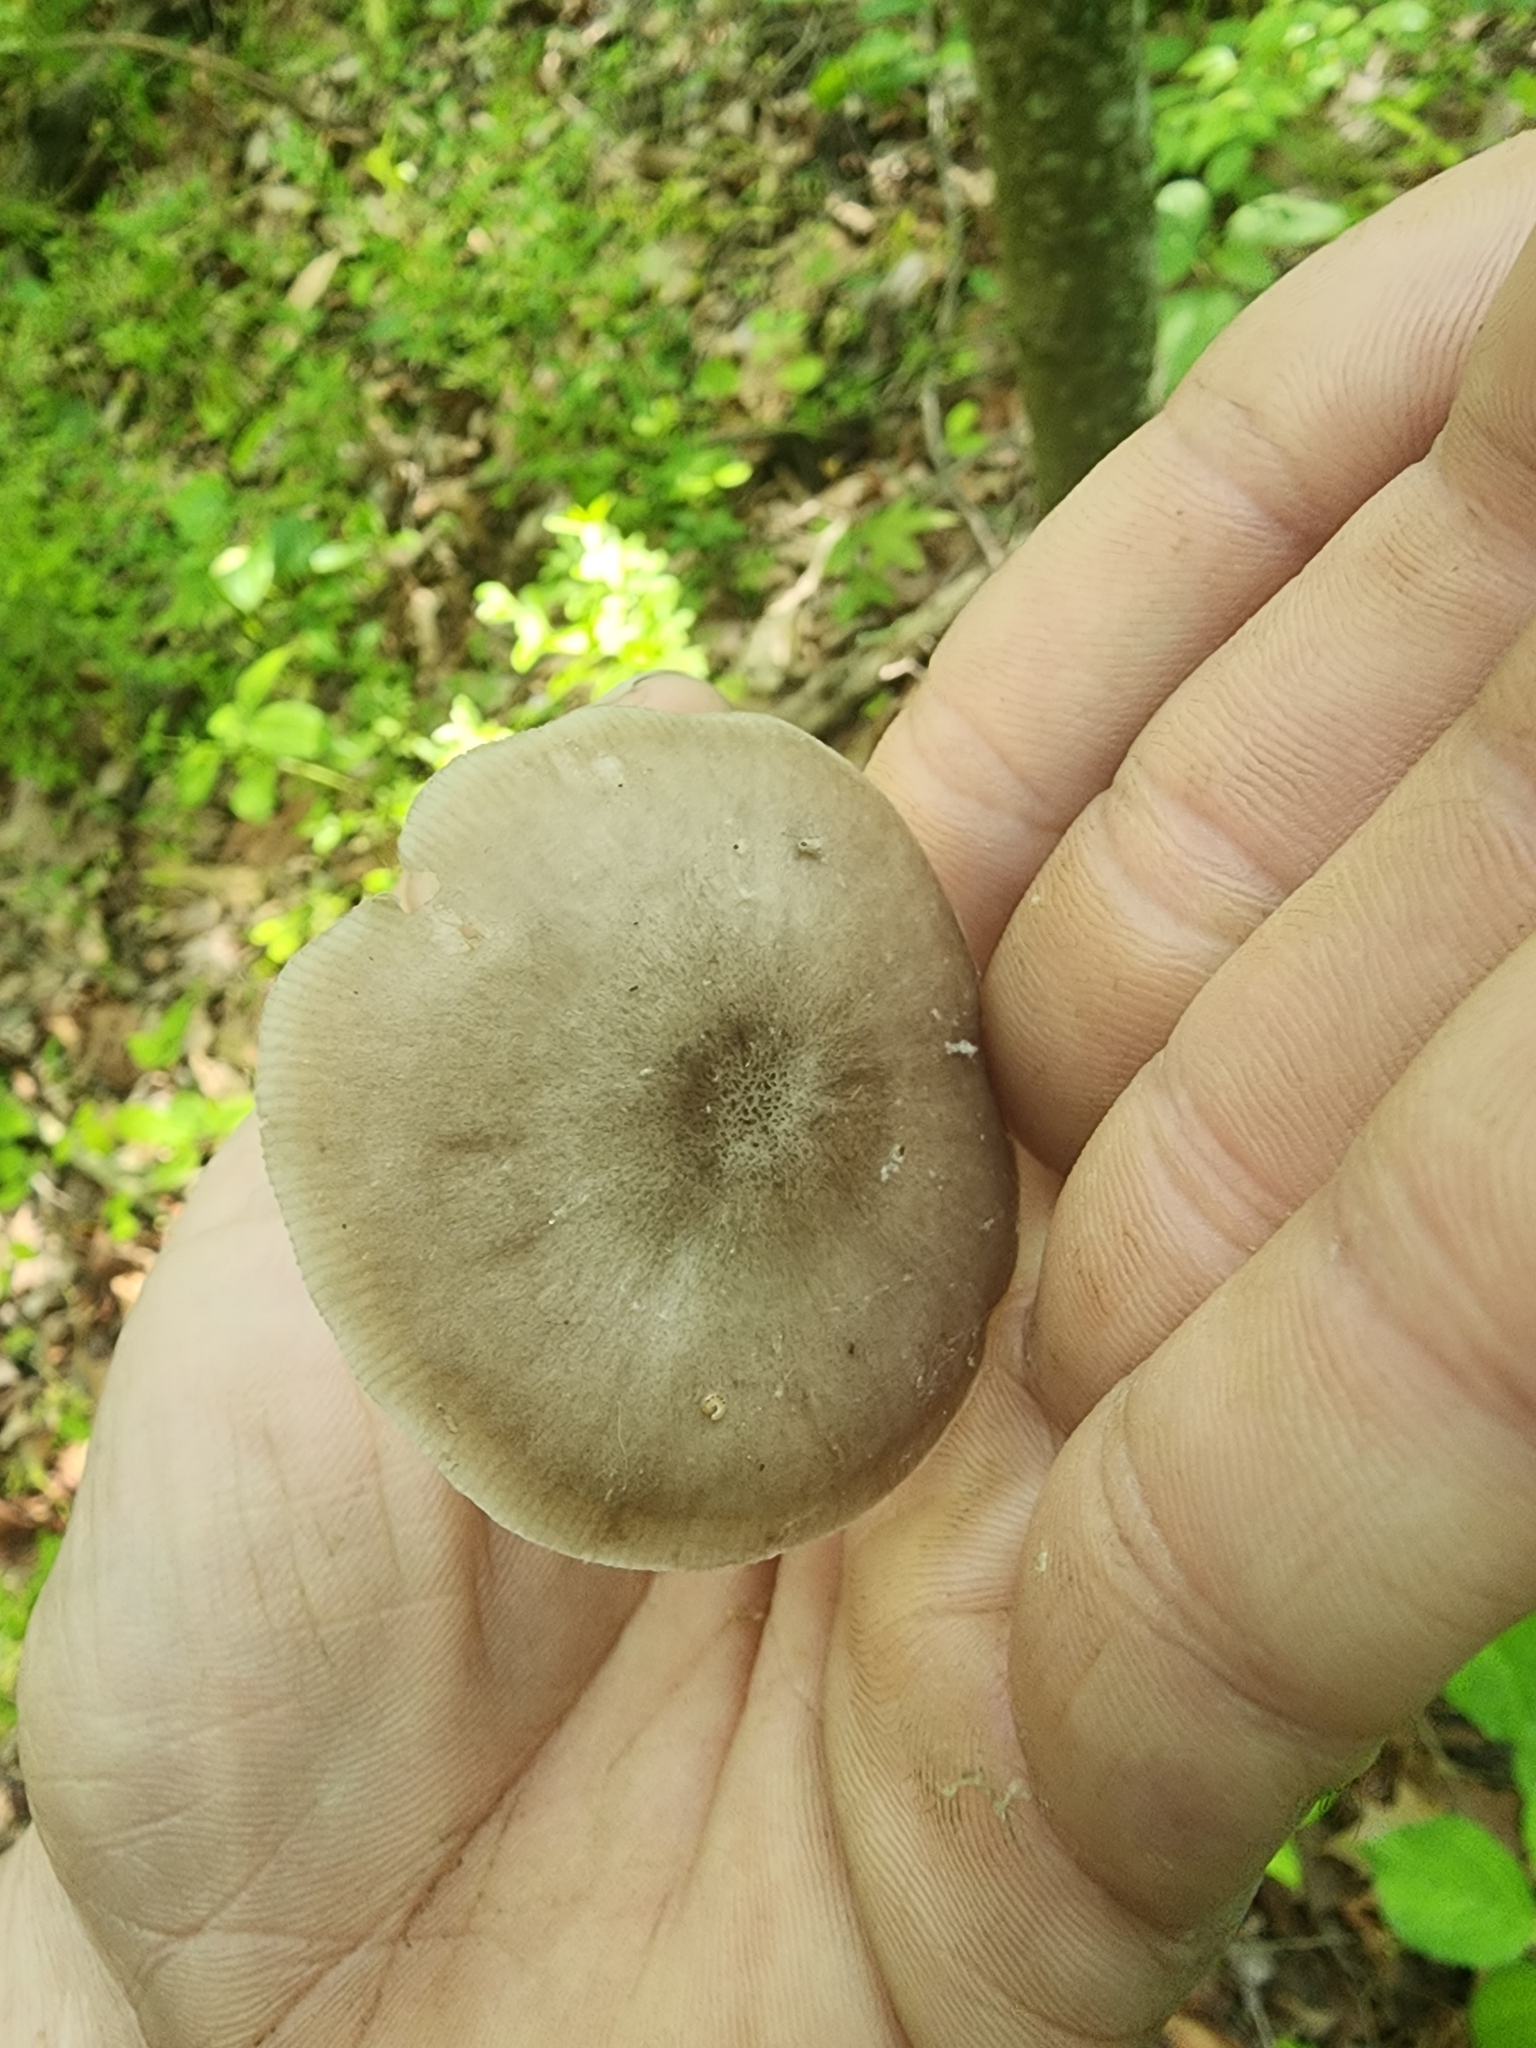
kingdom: Fungi
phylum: Basidiomycota
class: Agaricomycetes
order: Agaricales
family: Pluteaceae
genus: Pluteus
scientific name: Pluteus americanus
